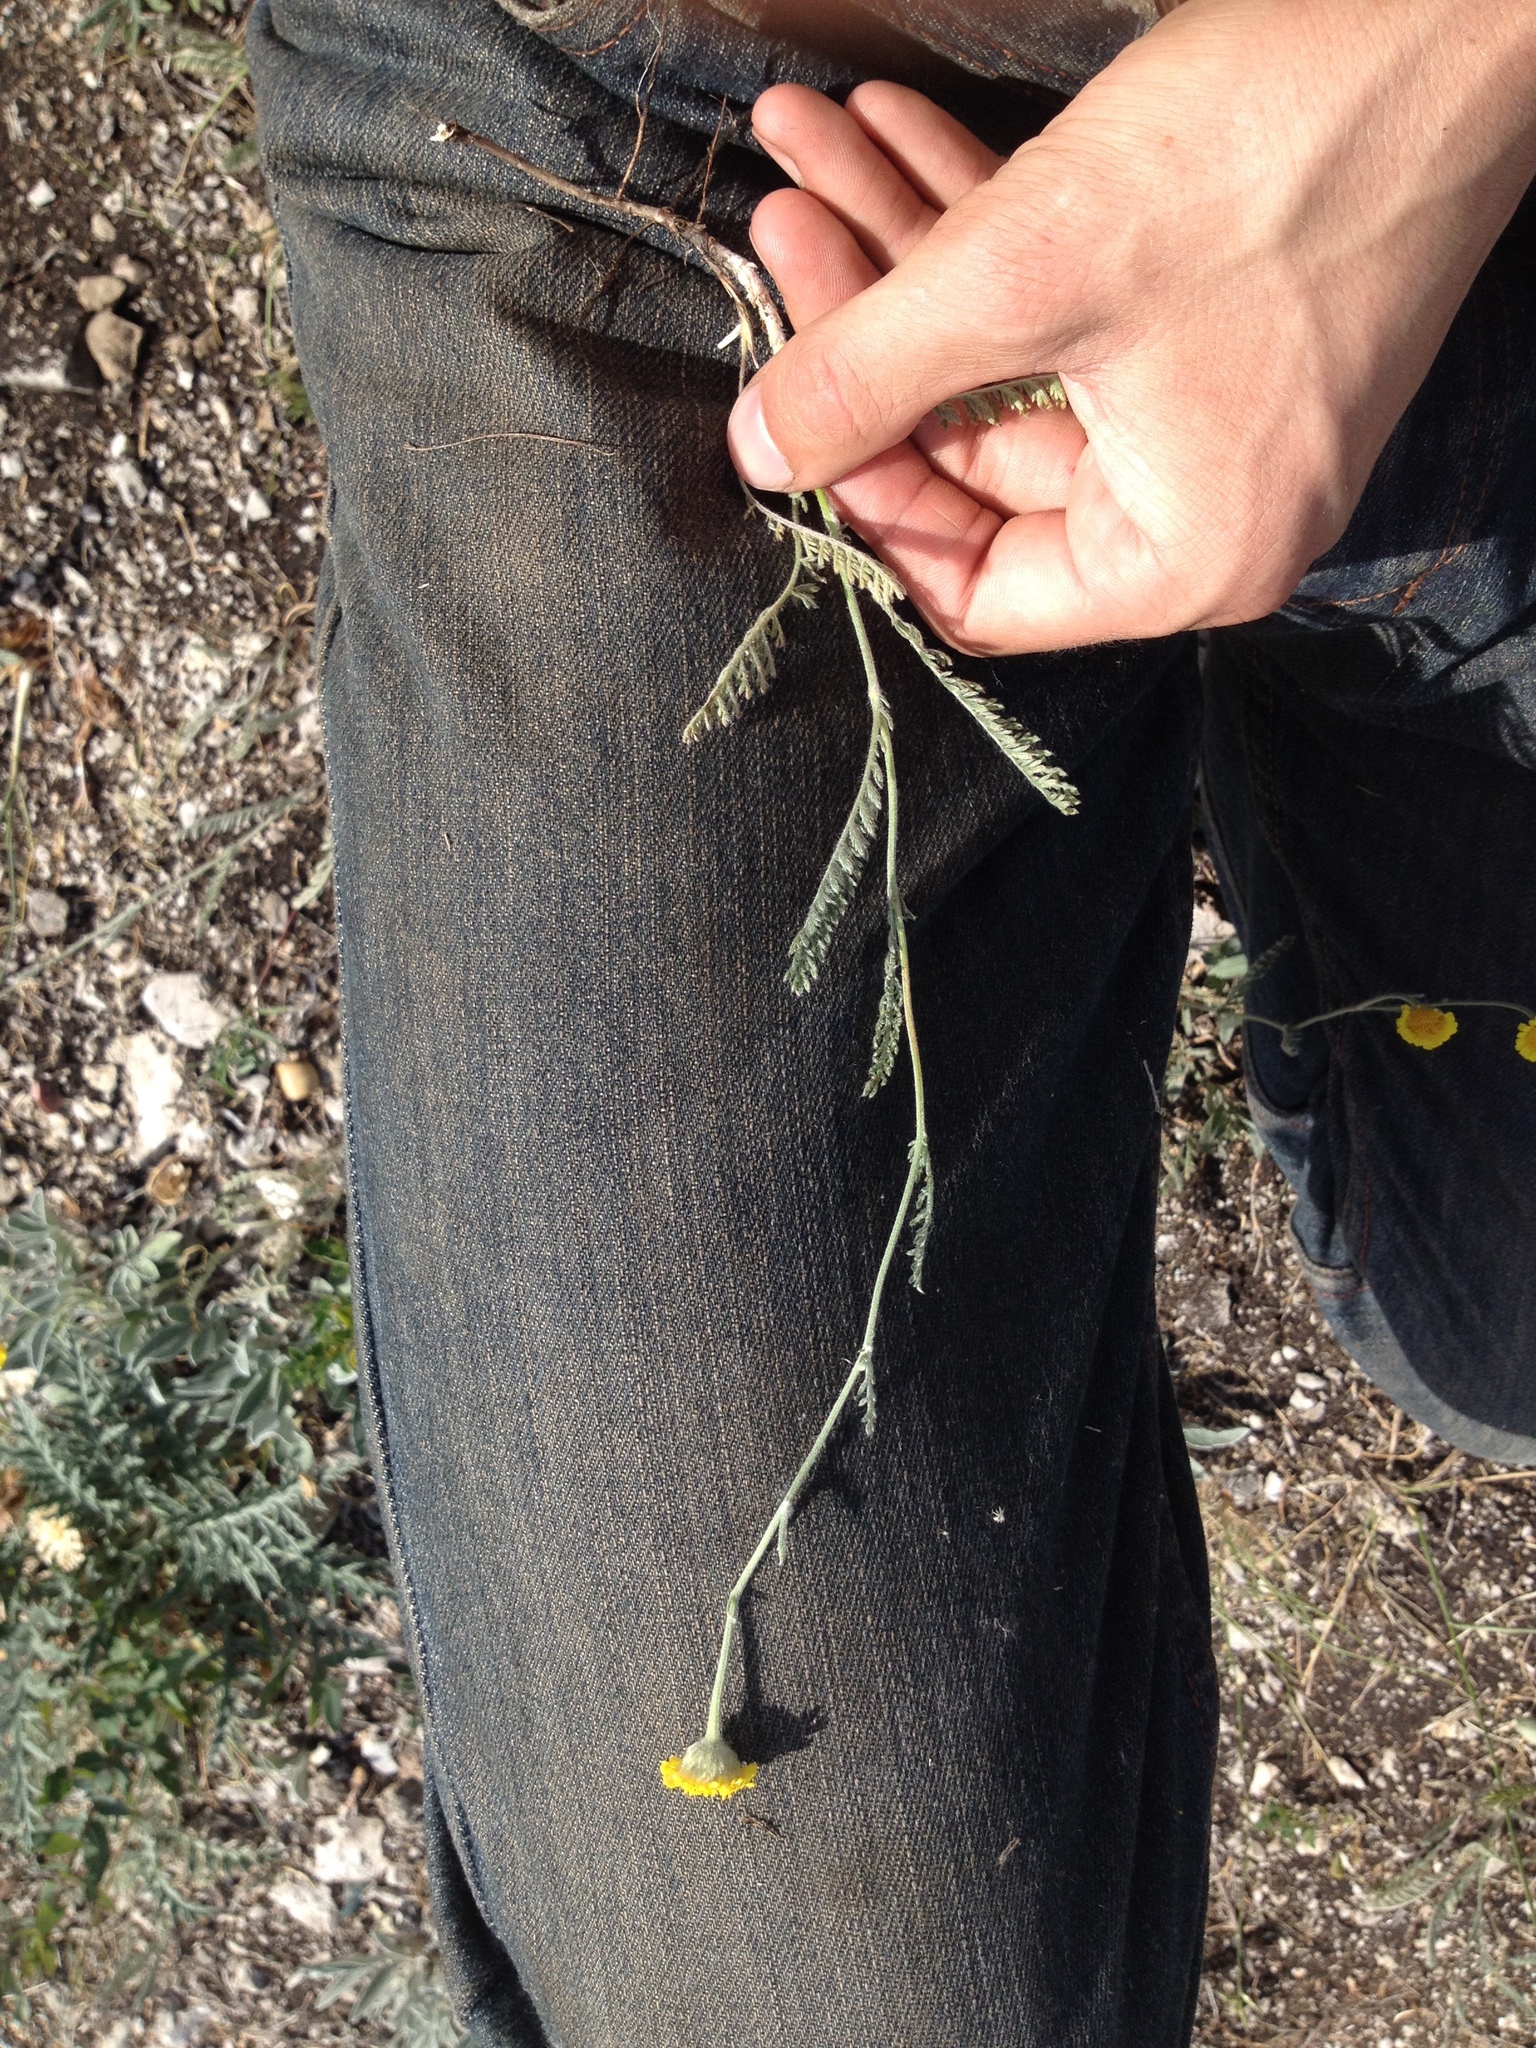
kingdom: Plantae
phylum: Tracheophyta
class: Magnoliopsida
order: Asterales
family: Asteraceae
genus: Tanacetum
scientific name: Tanacetum kittaryanum
